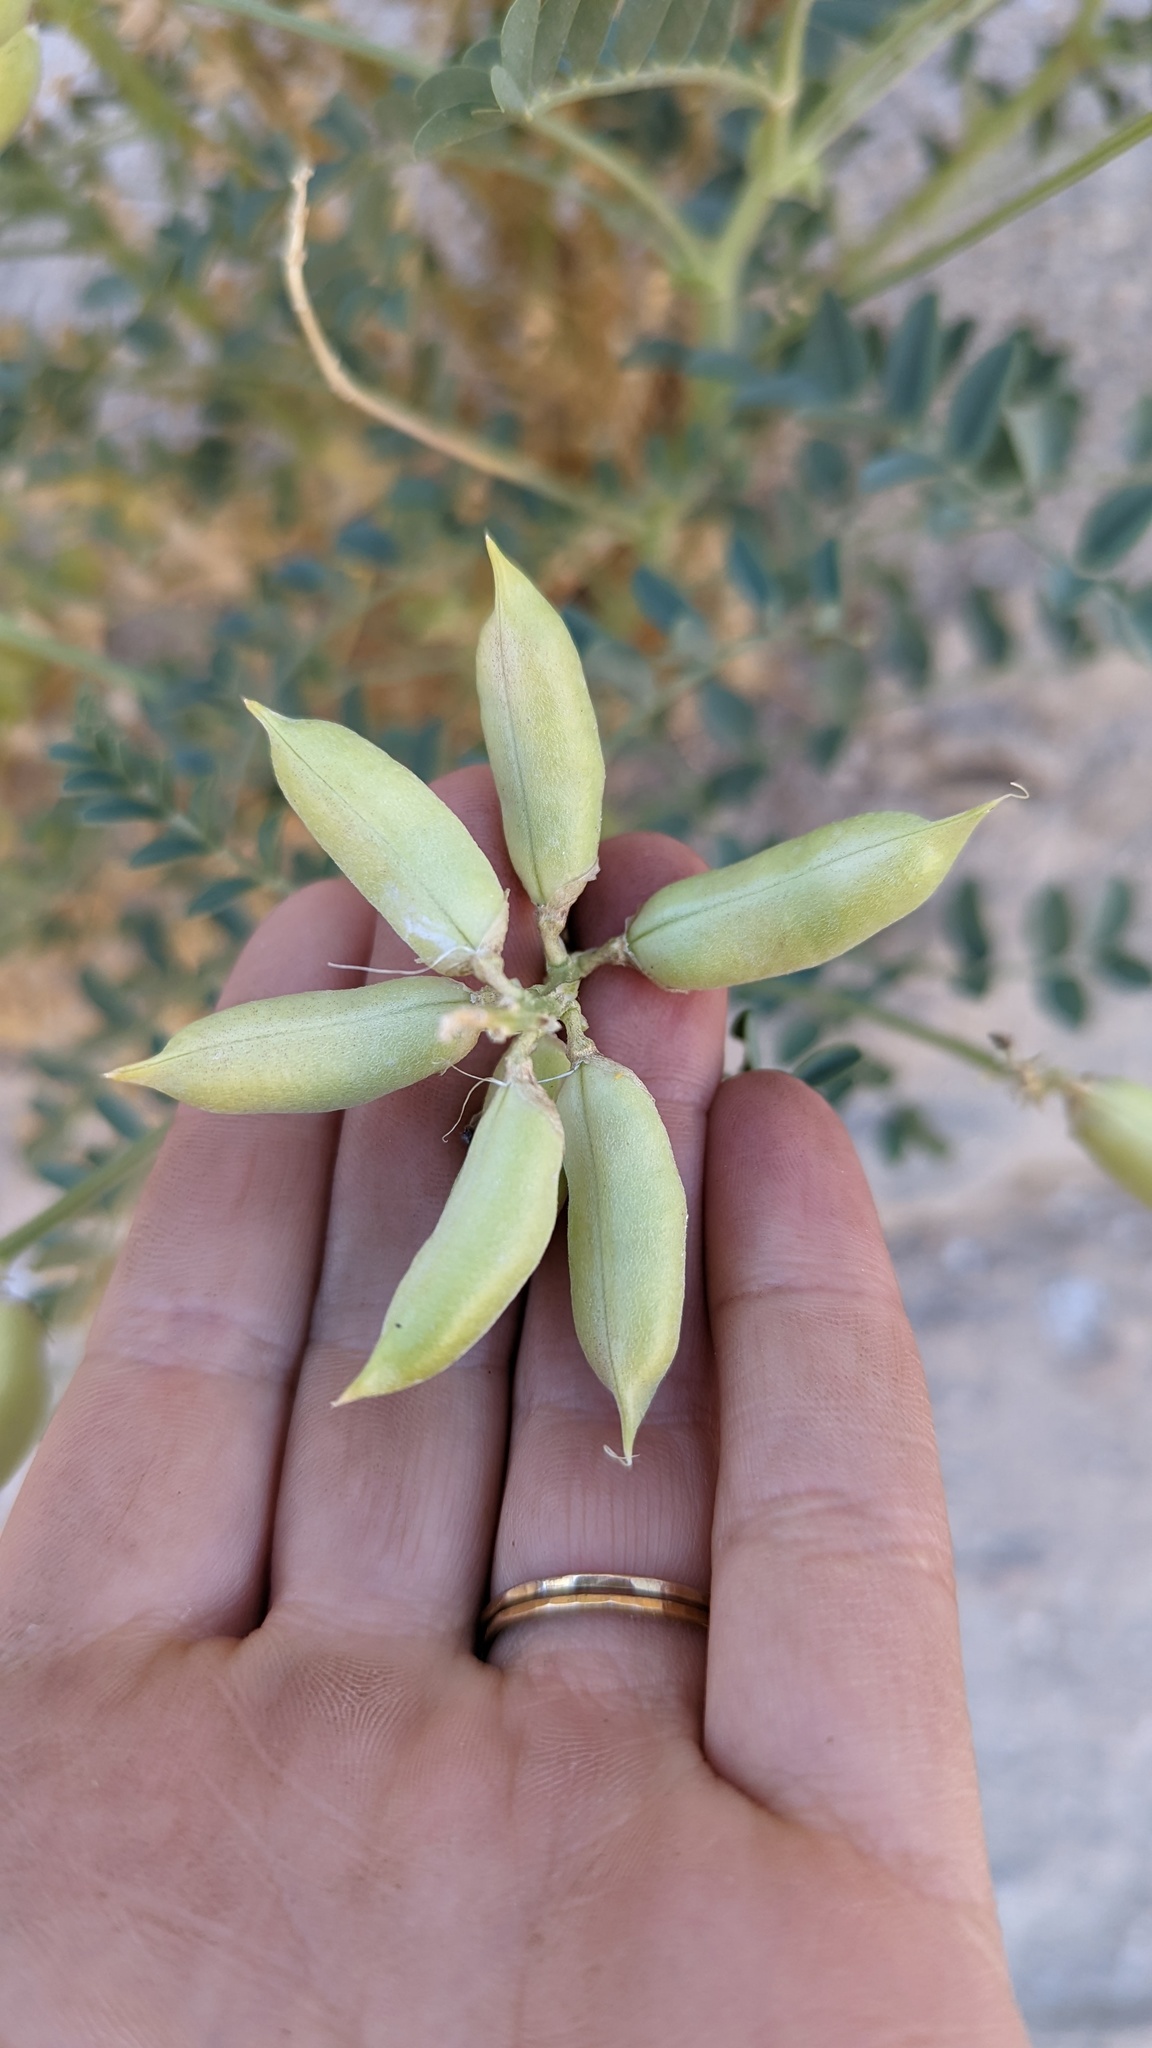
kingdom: Plantae
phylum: Tracheophyta
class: Magnoliopsida
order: Fabales
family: Fabaceae
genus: Astragalus
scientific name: Astragalus crotalariae
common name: Salton milkvetch
